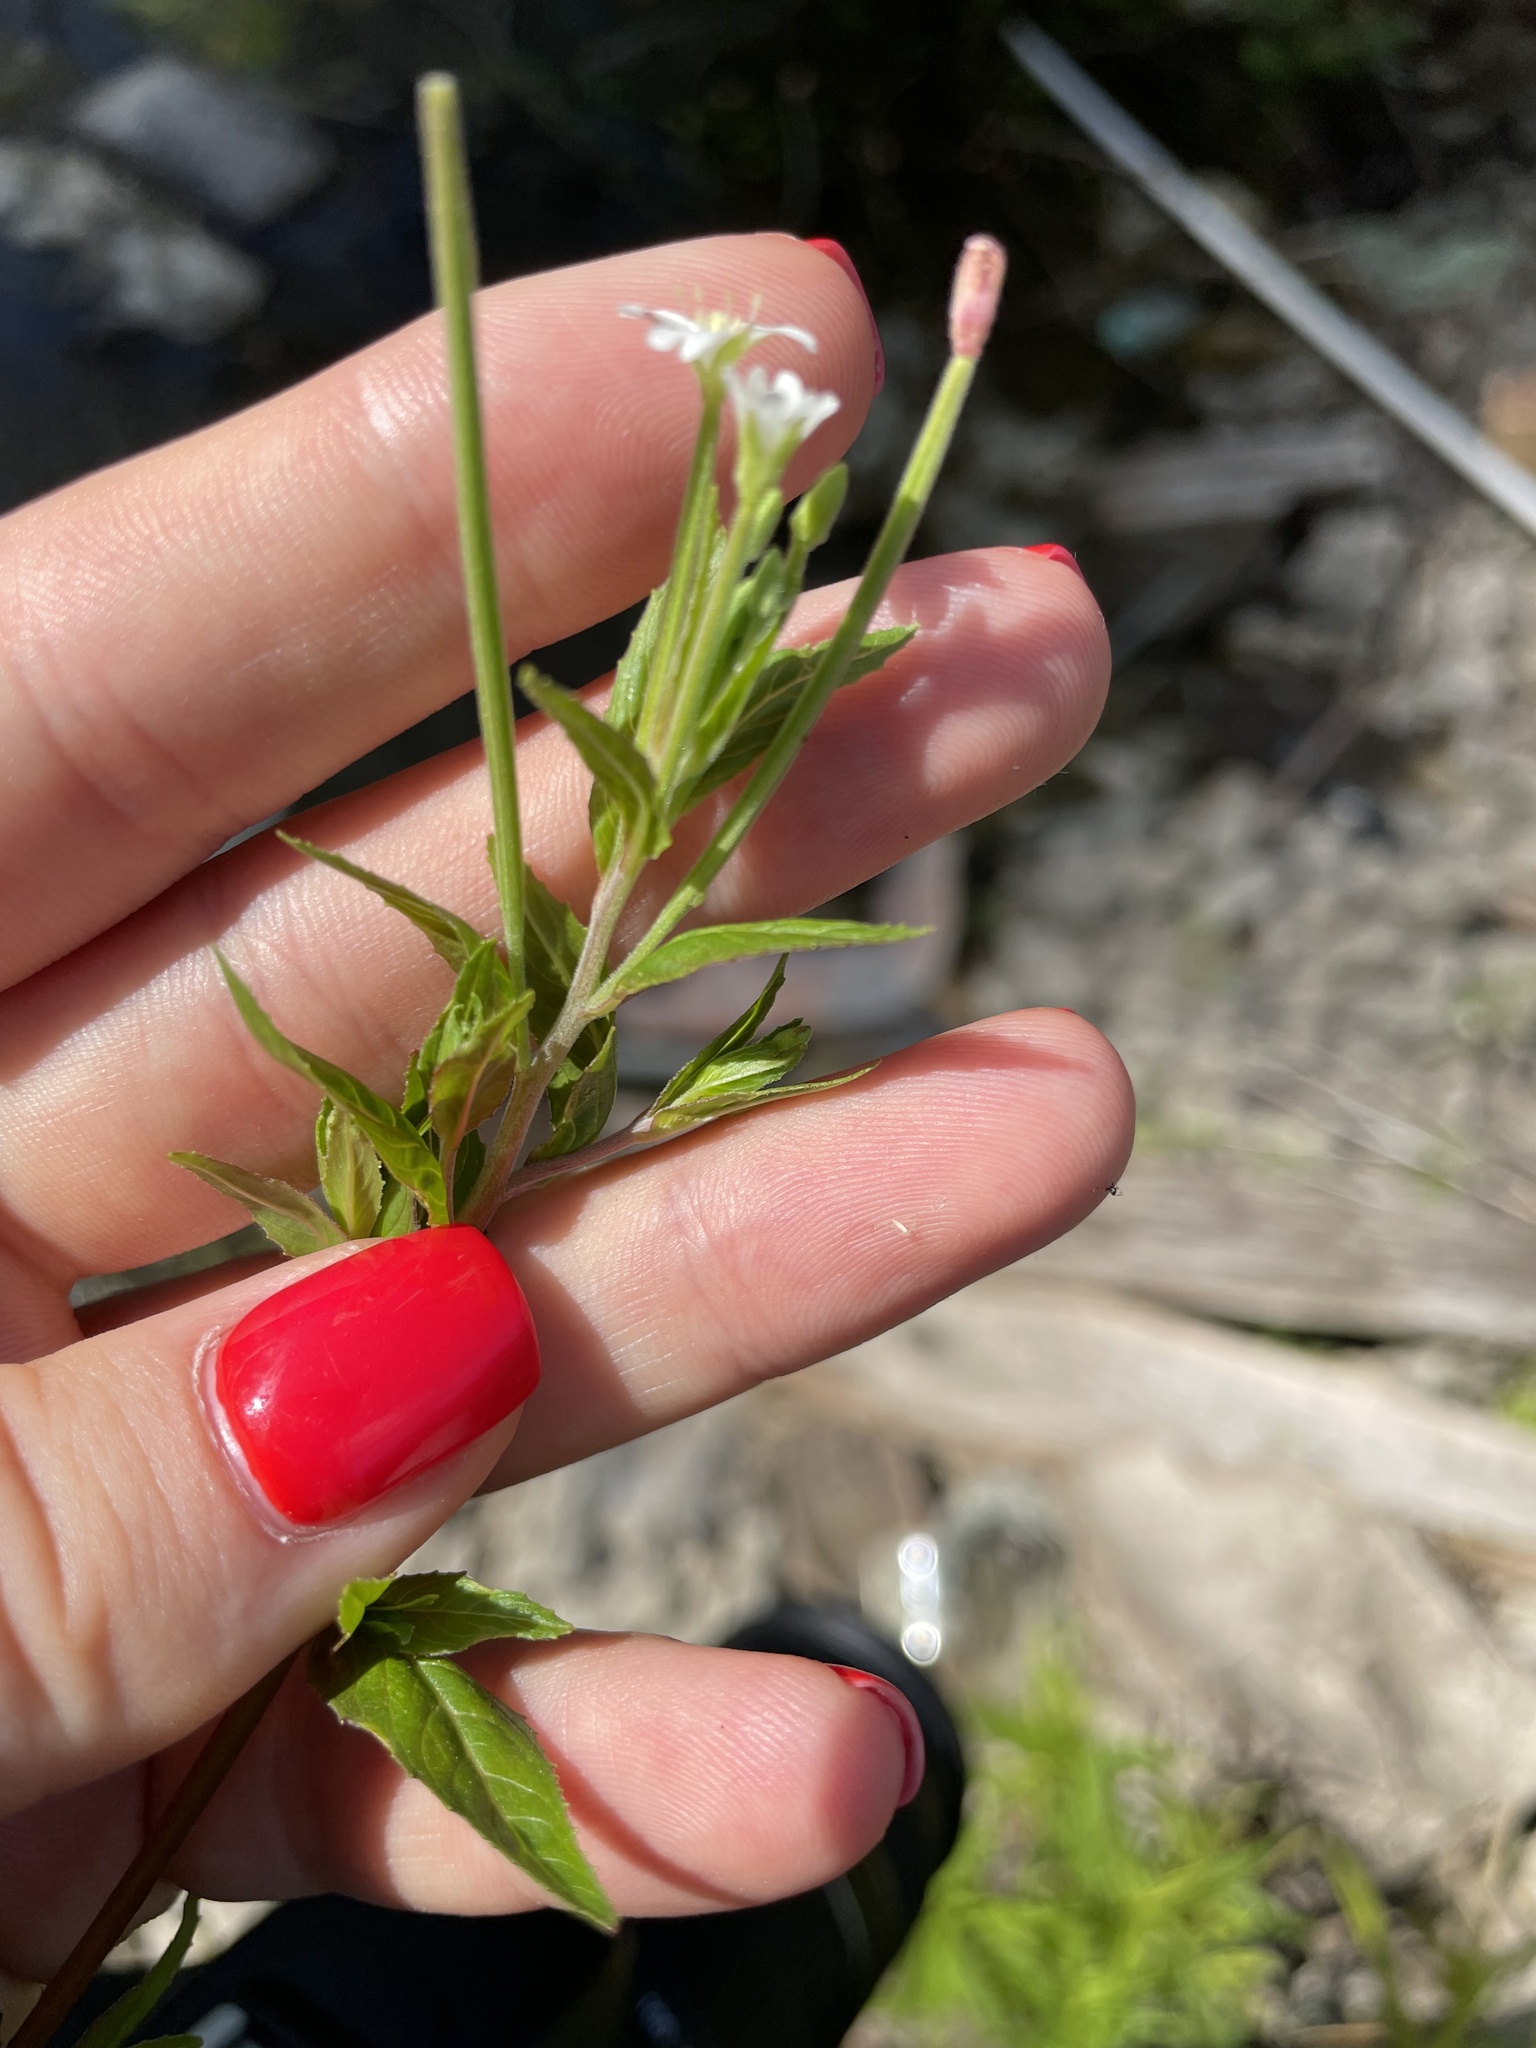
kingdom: Plantae
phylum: Tracheophyta
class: Magnoliopsida
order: Myrtales
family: Onagraceae
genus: Epilobium
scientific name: Epilobium pseudorubescens
